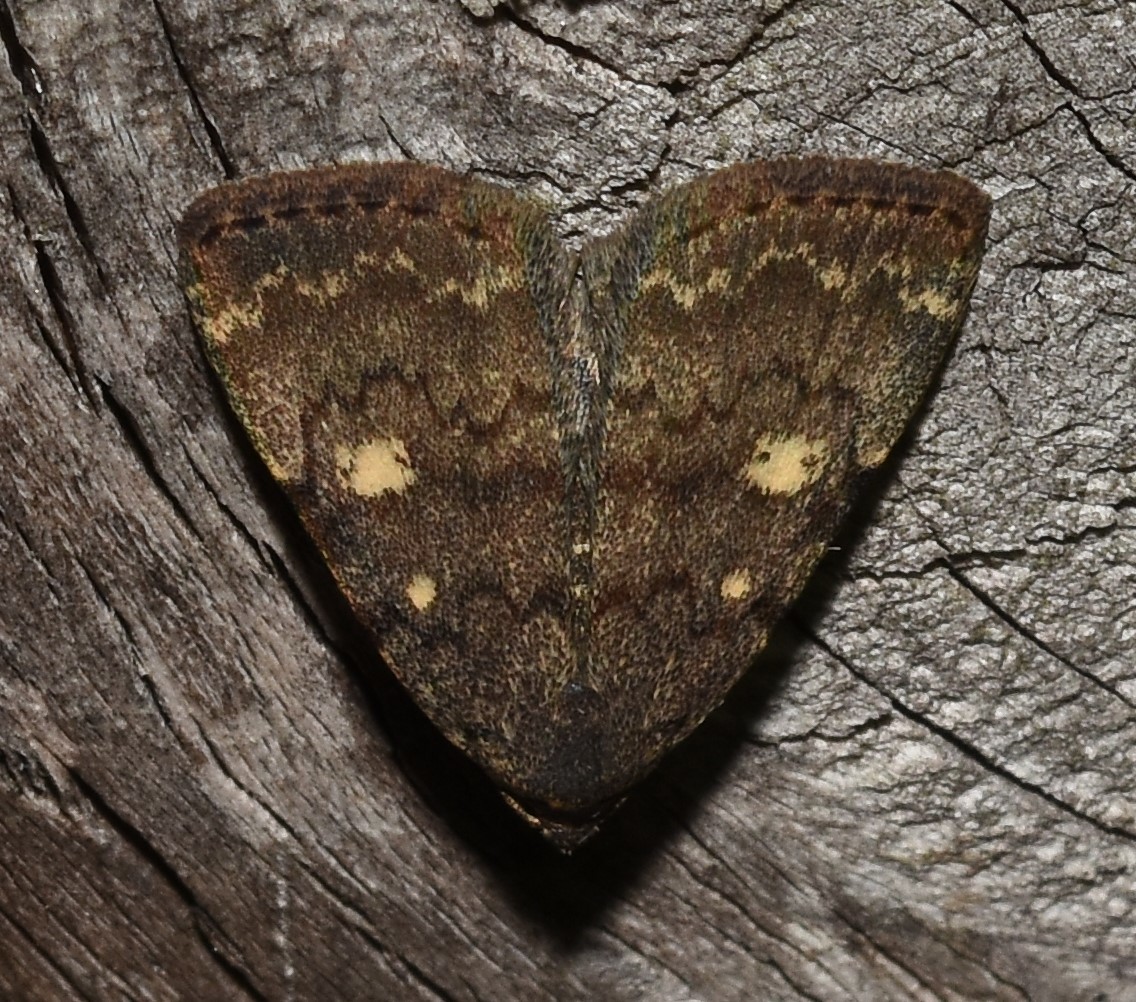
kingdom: Animalia
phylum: Arthropoda
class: Insecta
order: Lepidoptera
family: Erebidae
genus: Idia
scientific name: Idia aemula
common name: Common idia moth
